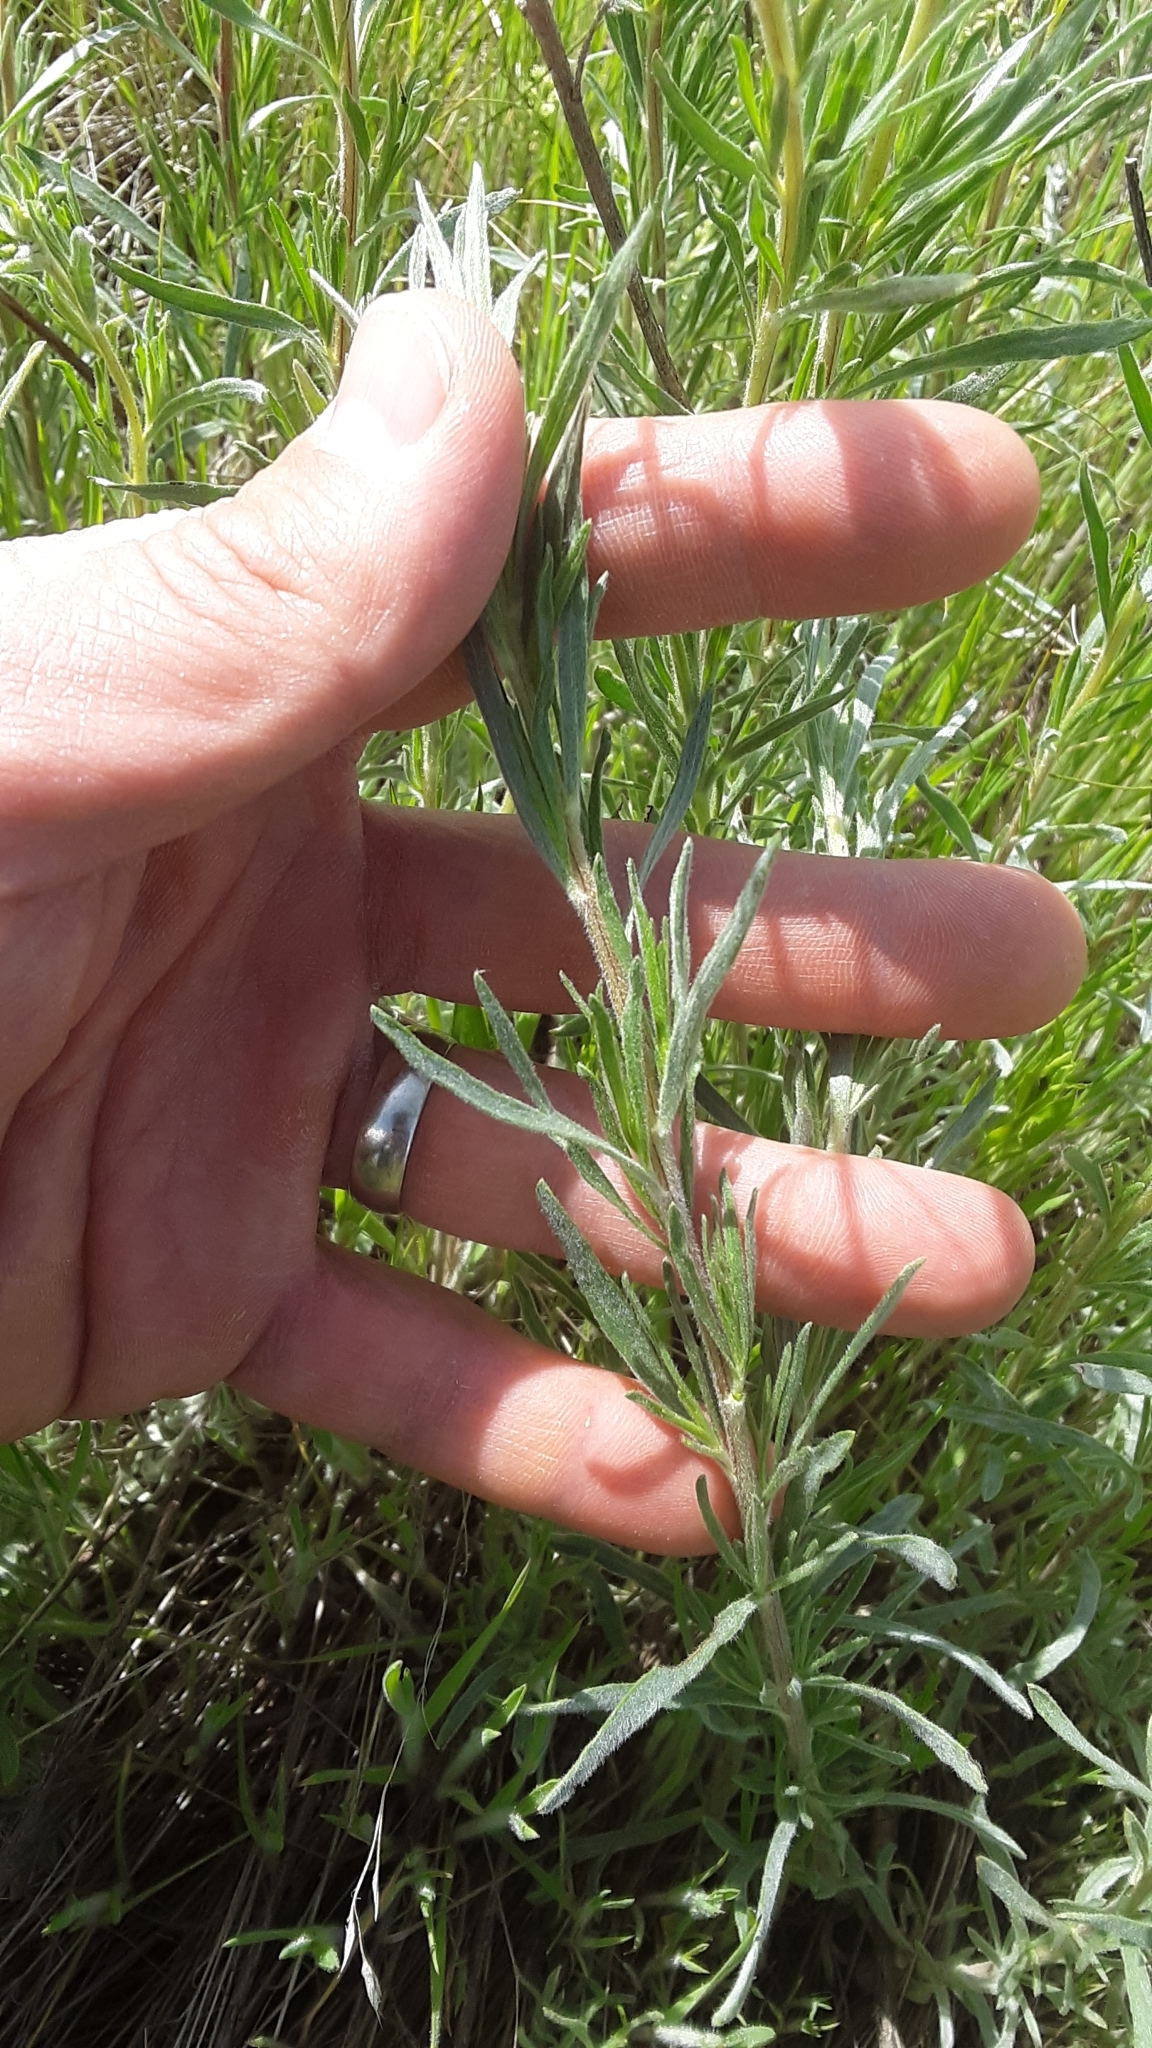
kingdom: Plantae
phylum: Tracheophyta
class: Magnoliopsida
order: Asterales
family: Asteraceae
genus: Artemisia
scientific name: Artemisia campestris
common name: Field wormwood
